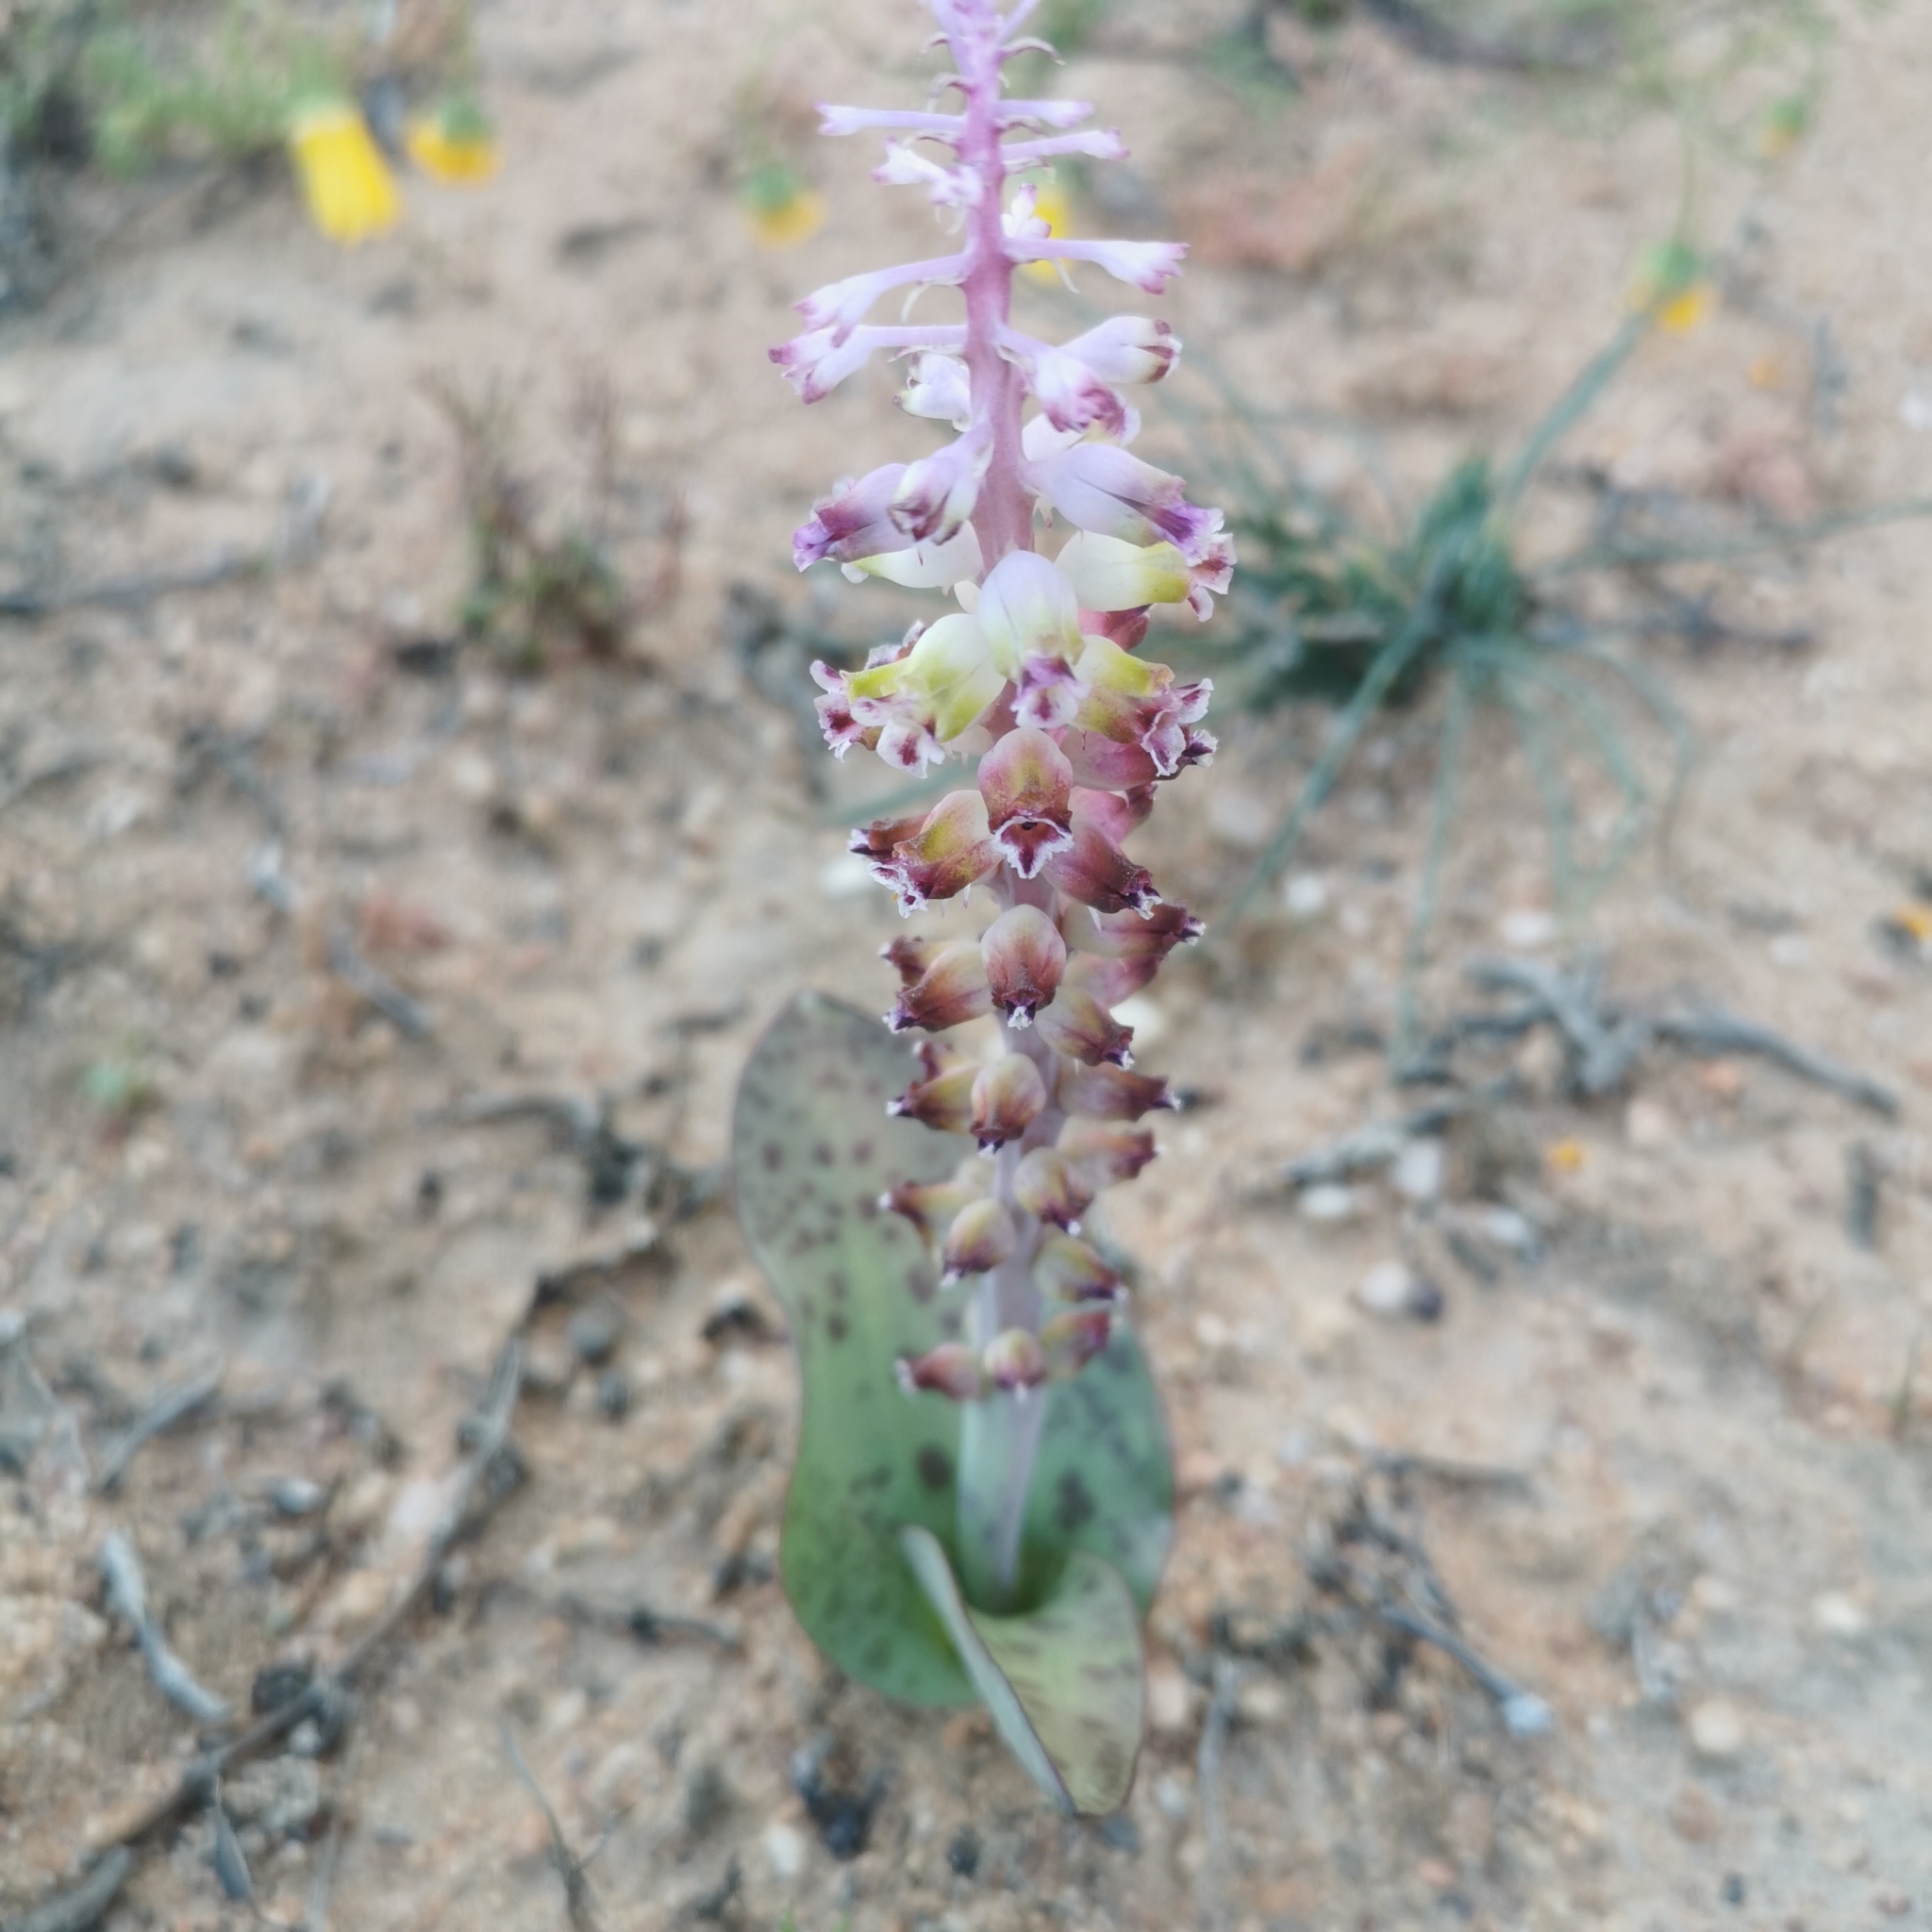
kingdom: Plantae
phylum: Tracheophyta
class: Liliopsida
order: Asparagales
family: Asparagaceae
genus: Lachenalia
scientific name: Lachenalia membranacea
